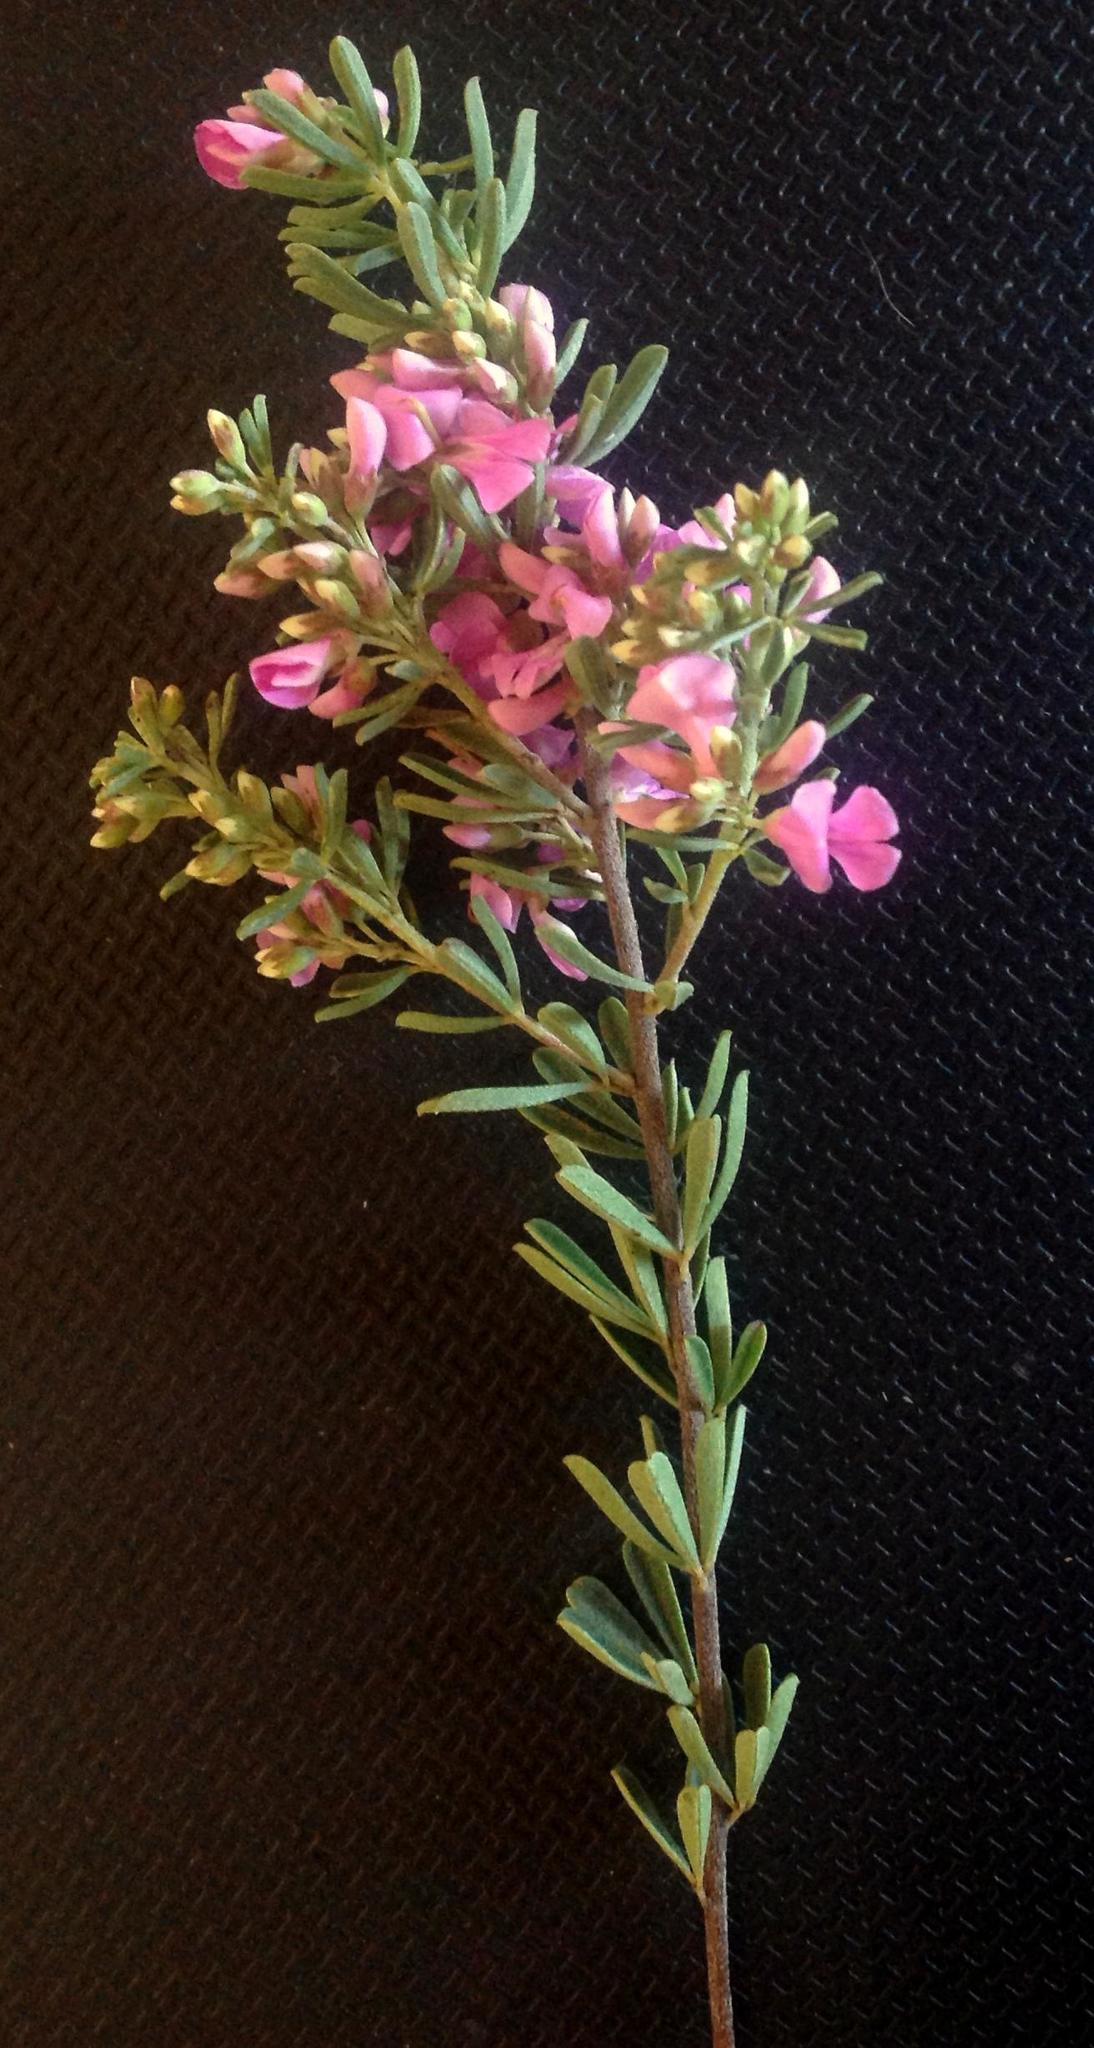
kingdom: Plantae
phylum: Tracheophyta
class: Magnoliopsida
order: Fabales
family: Fabaceae
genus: Indigofera
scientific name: Indigofera flabellata
